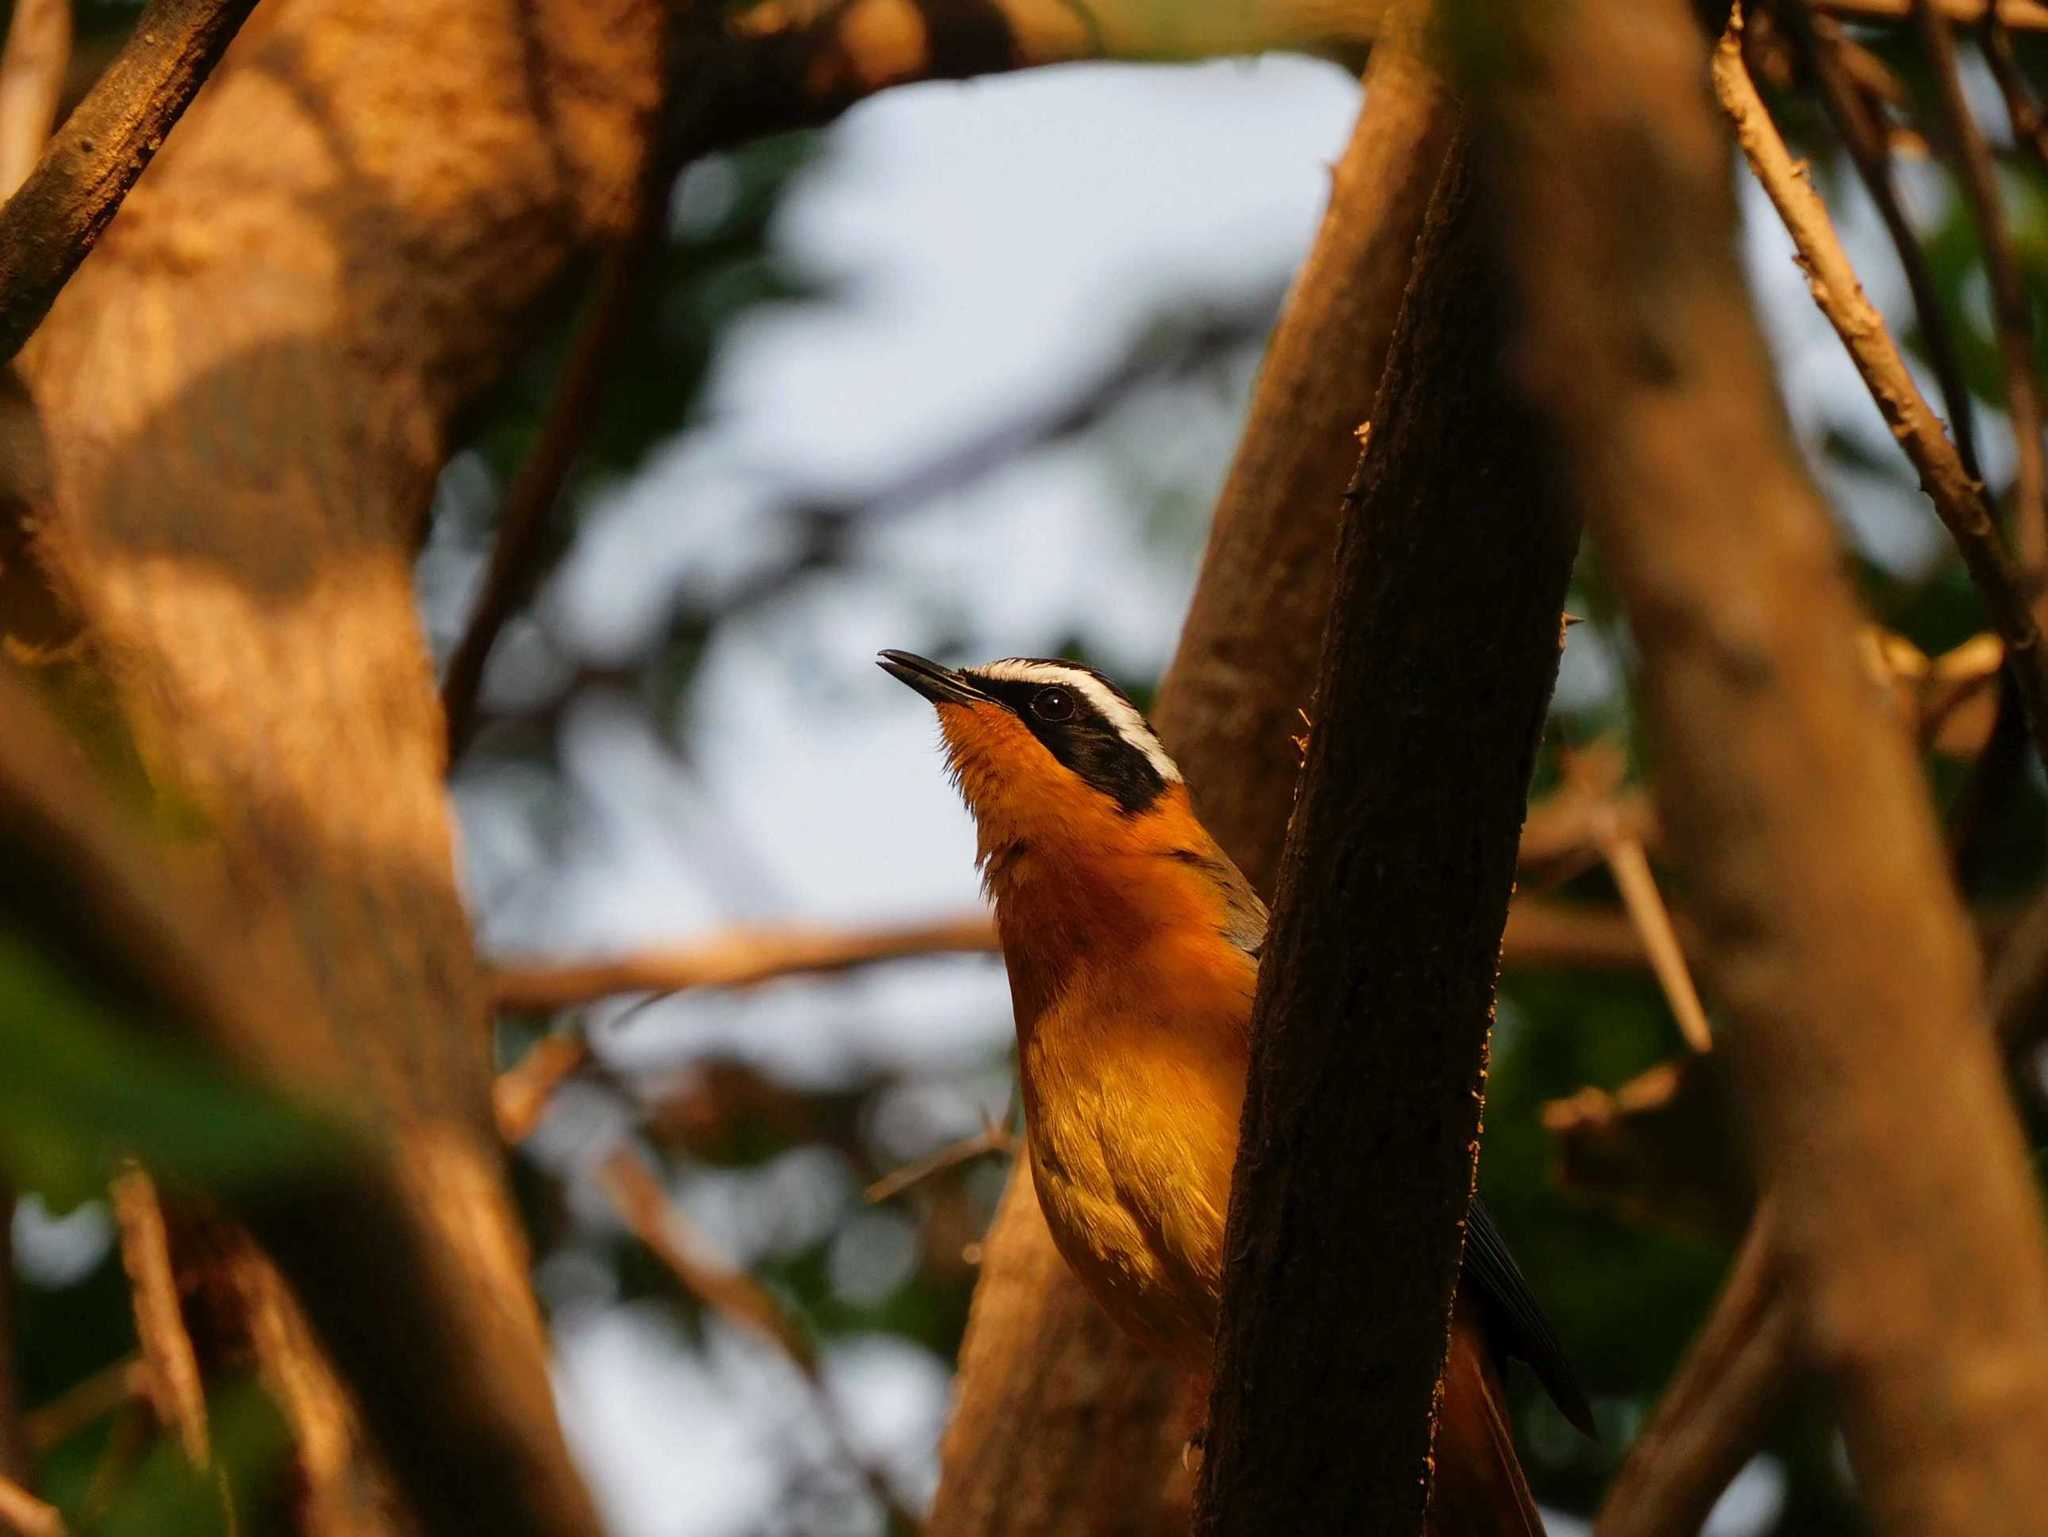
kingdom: Animalia
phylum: Chordata
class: Aves
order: Passeriformes
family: Muscicapidae
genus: Cossypha
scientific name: Cossypha heuglini
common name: White-browed robin-chat
